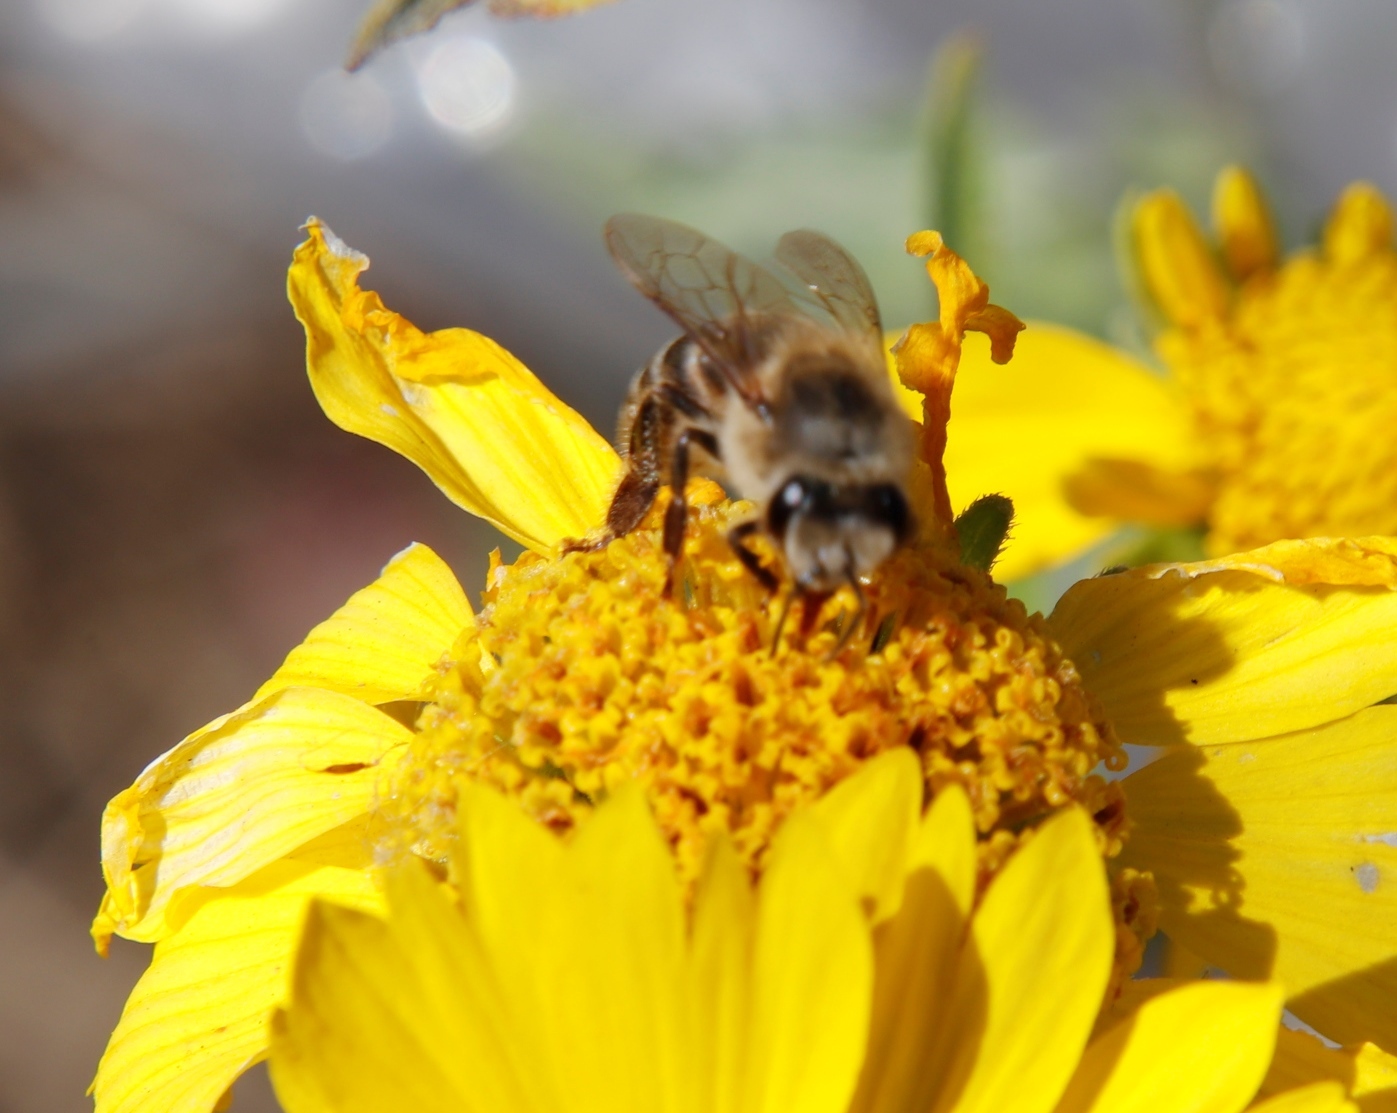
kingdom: Animalia
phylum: Arthropoda
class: Insecta
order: Hymenoptera
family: Apidae
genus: Apis
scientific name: Apis mellifera
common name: Honey bee
